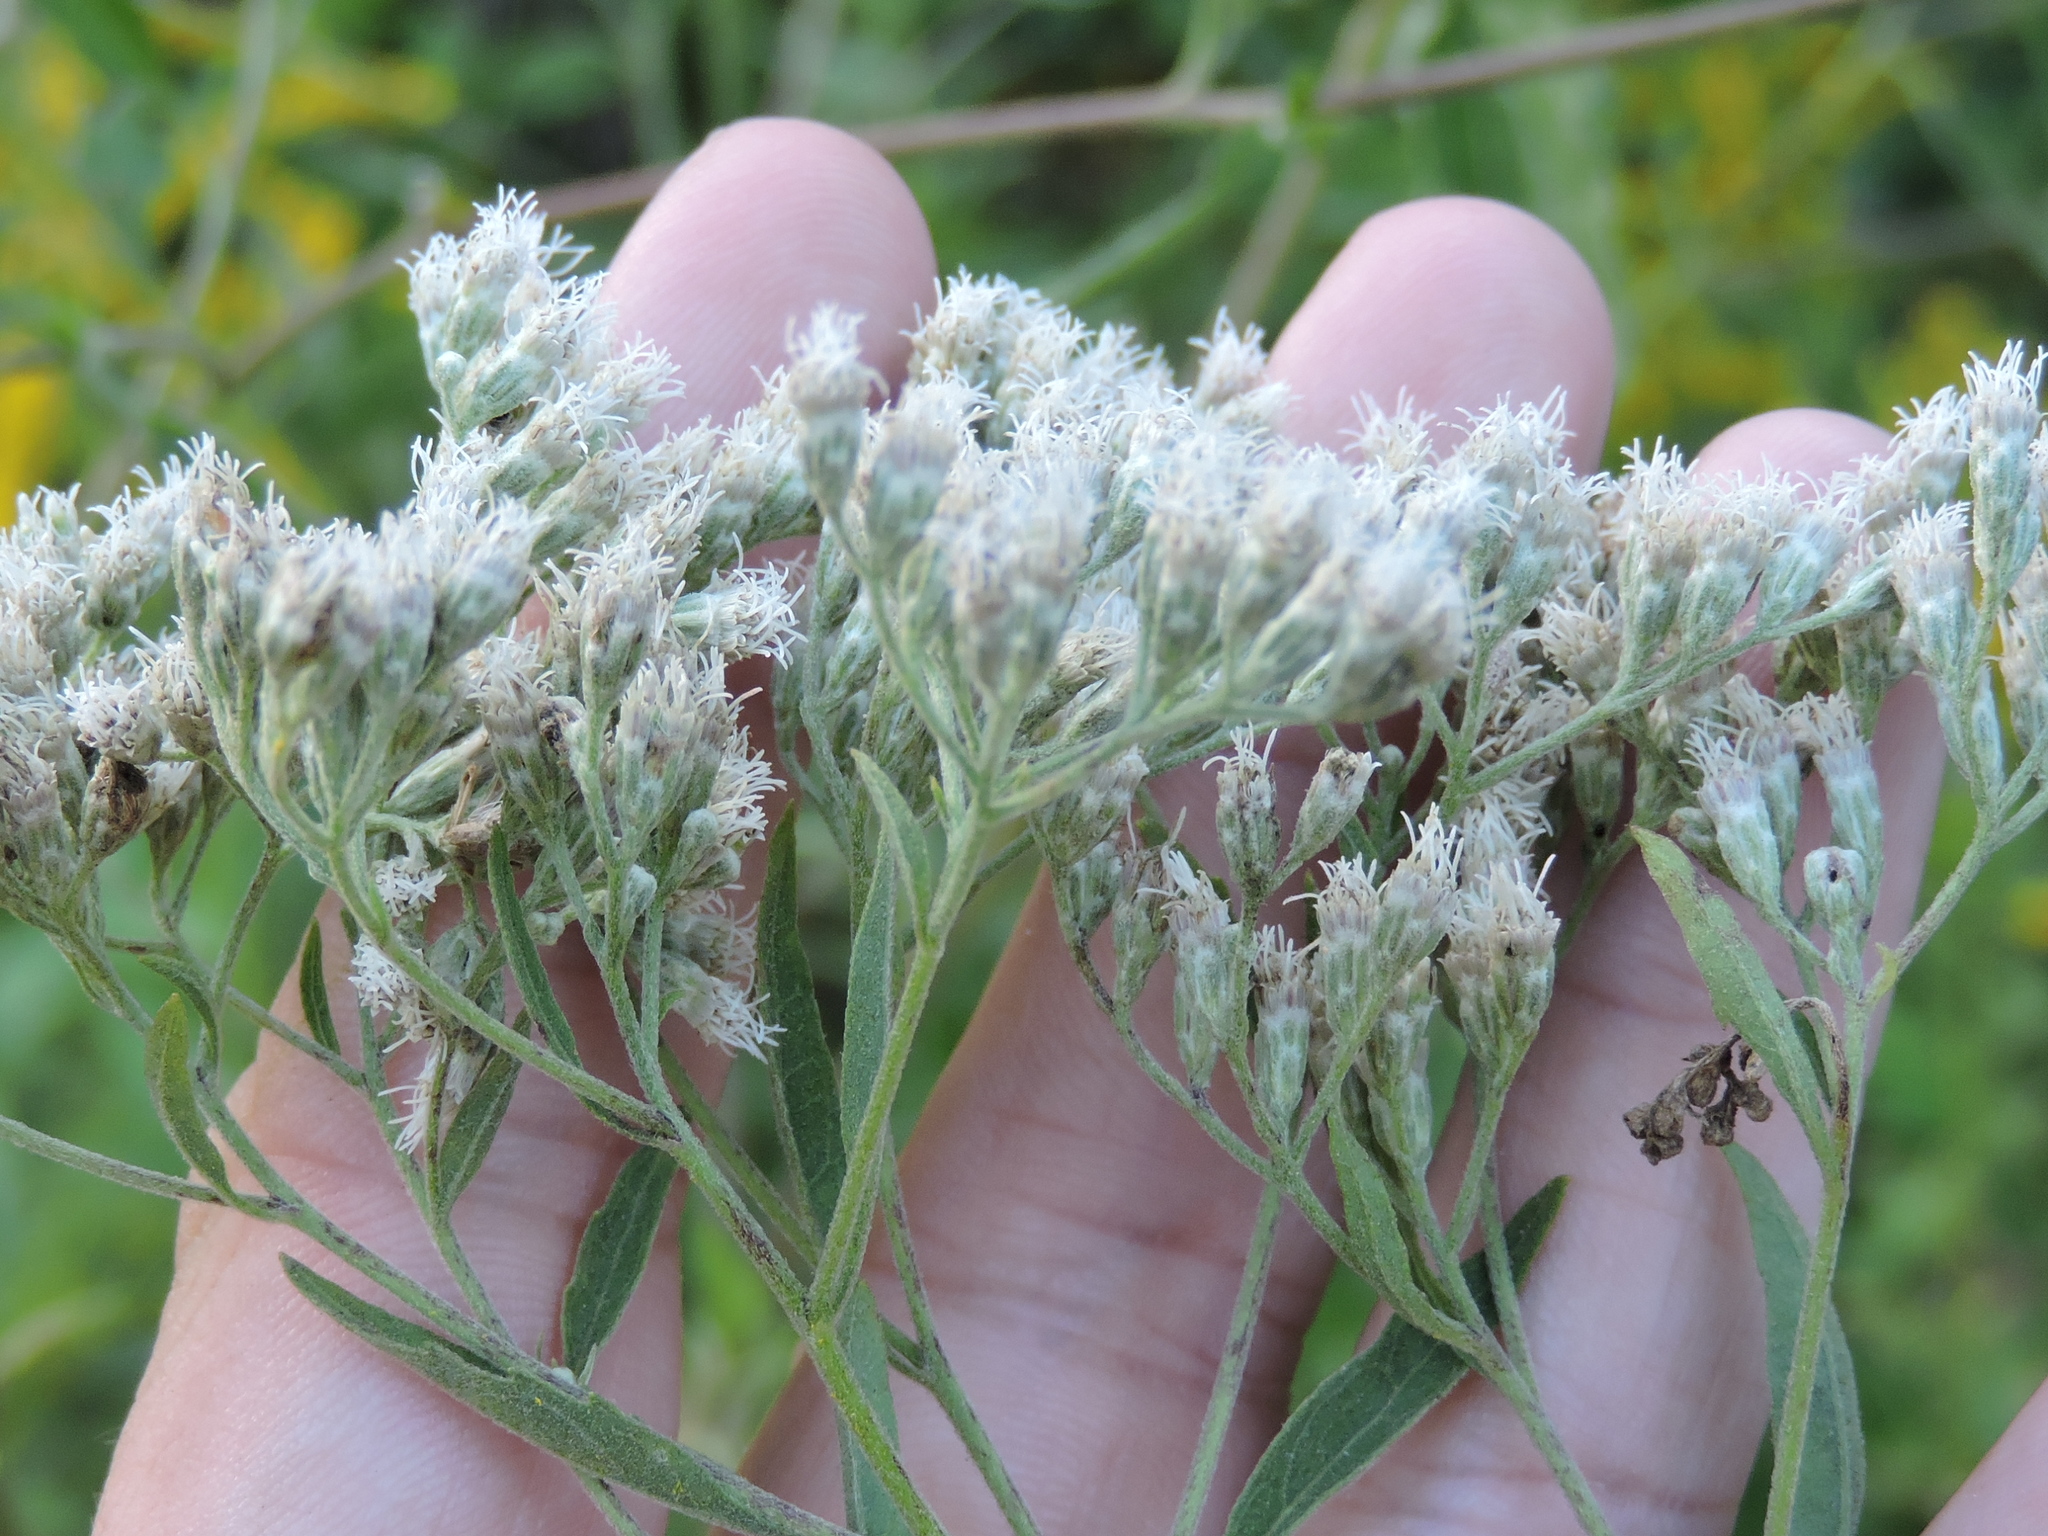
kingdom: Plantae
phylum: Tracheophyta
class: Magnoliopsida
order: Asterales
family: Asteraceae
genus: Eupatorium
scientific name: Eupatorium serotinum
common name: Late boneset
